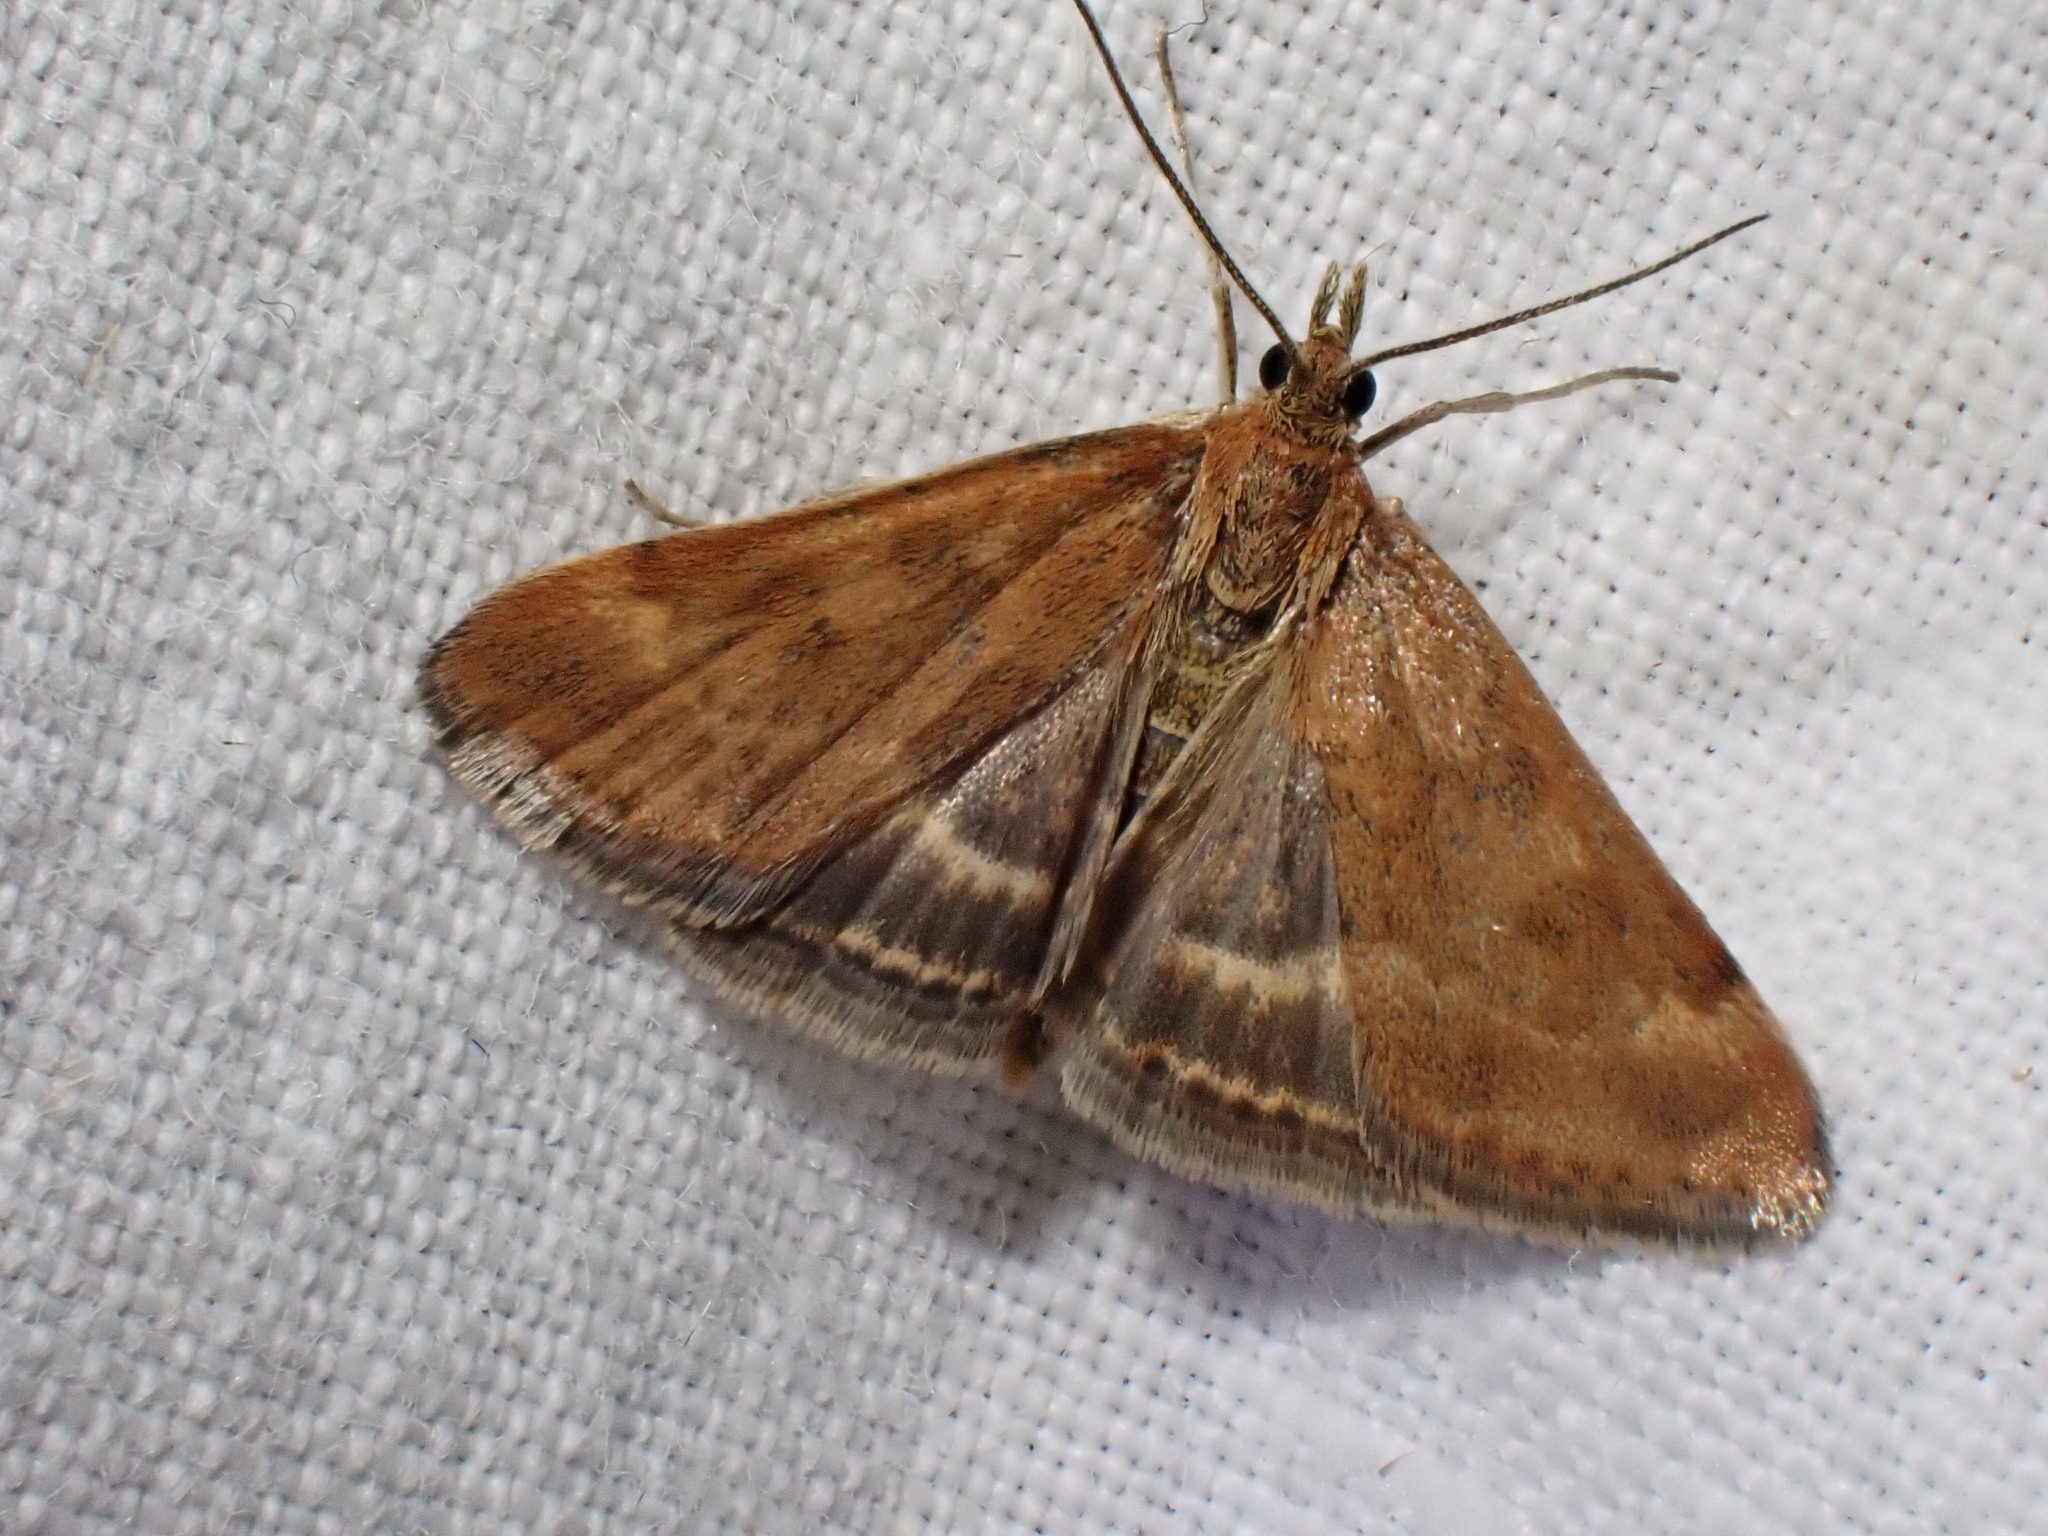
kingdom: Animalia
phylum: Arthropoda
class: Insecta
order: Lepidoptera
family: Crambidae
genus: Pyrausta
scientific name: Pyrausta despicata
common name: Straw-barred pearl
